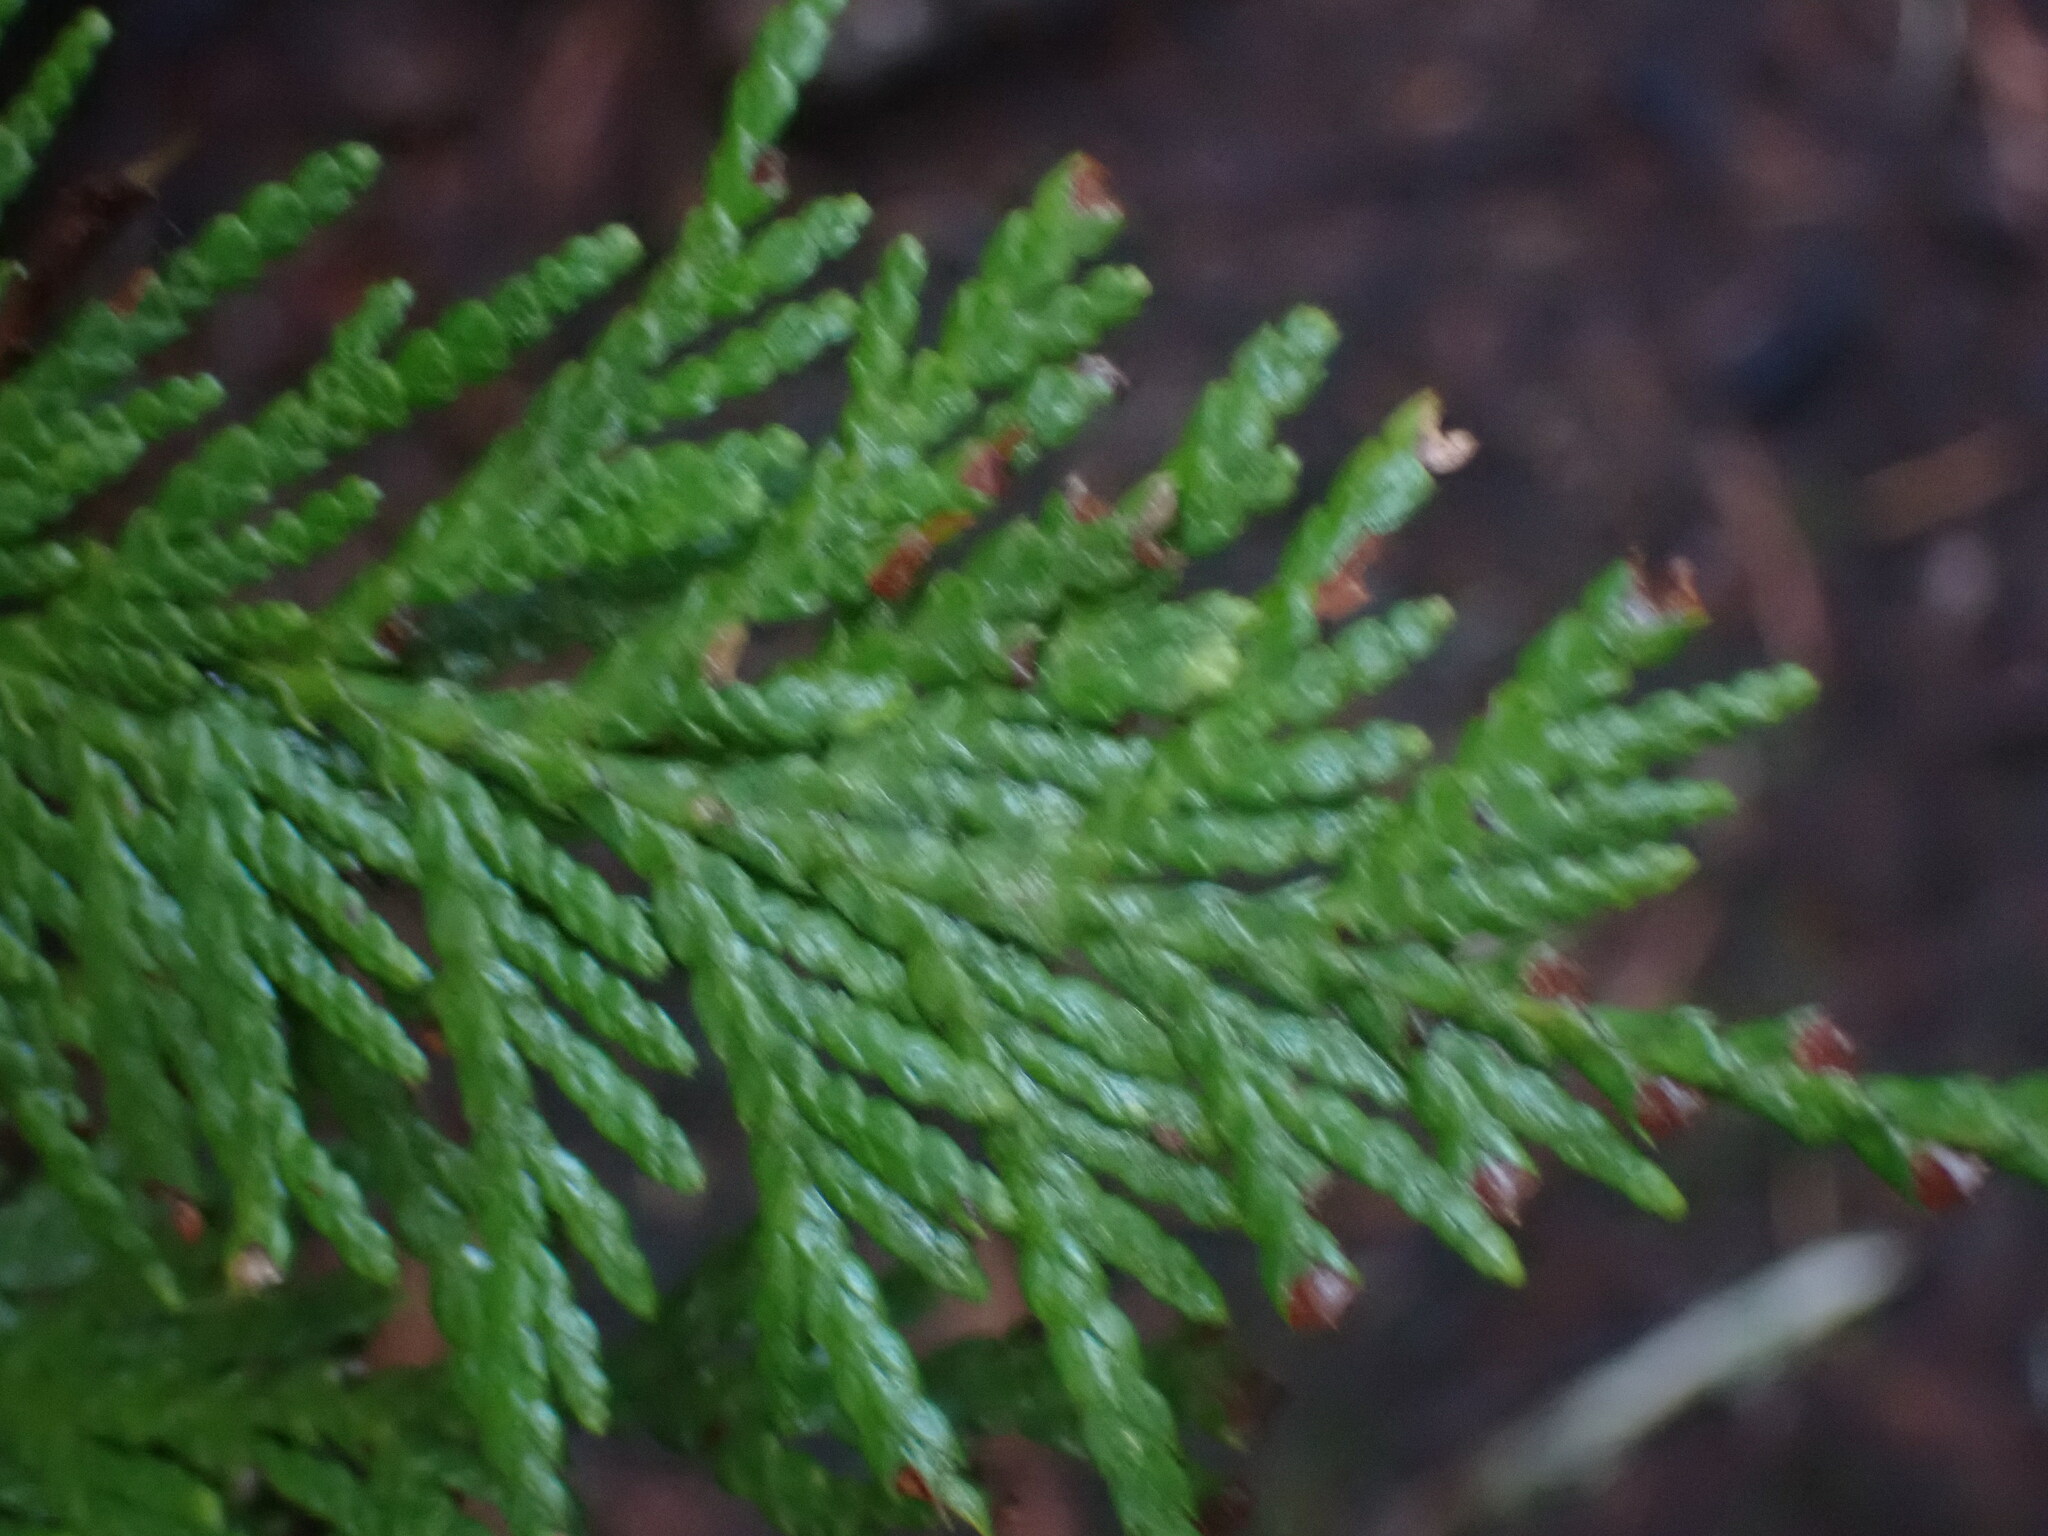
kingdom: Plantae
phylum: Tracheophyta
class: Pinopsida
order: Pinales
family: Cupressaceae
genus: Thuja
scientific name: Thuja plicata
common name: Western red-cedar
